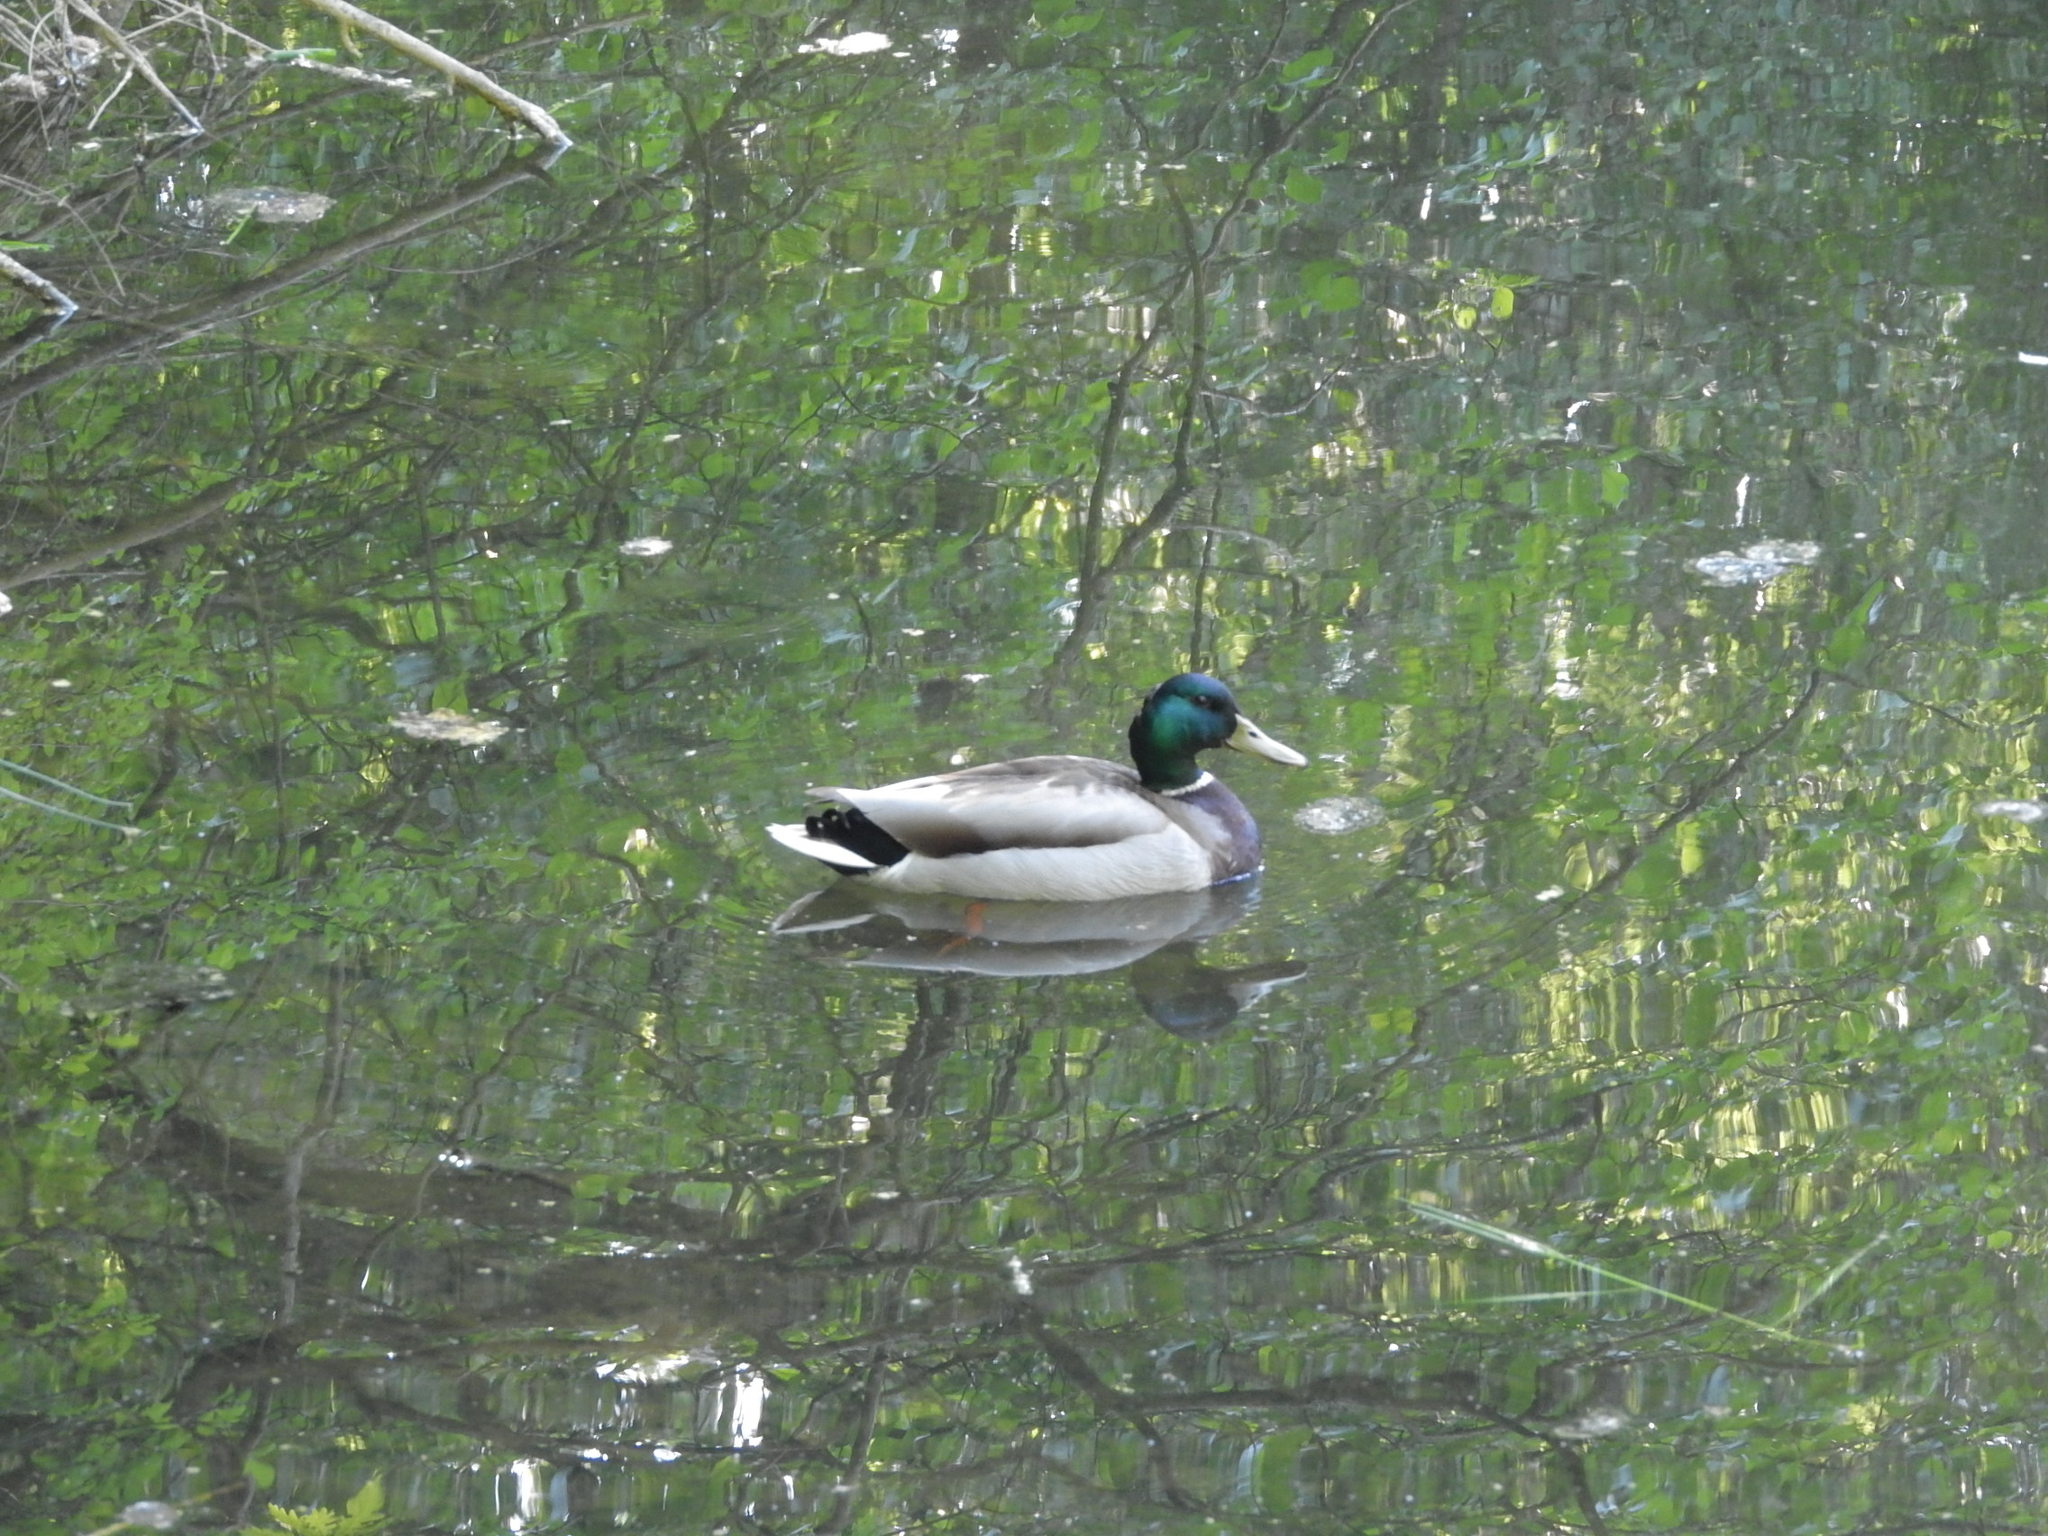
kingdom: Animalia
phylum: Chordata
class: Aves
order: Anseriformes
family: Anatidae
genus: Anas
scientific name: Anas platyrhynchos
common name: Mallard
